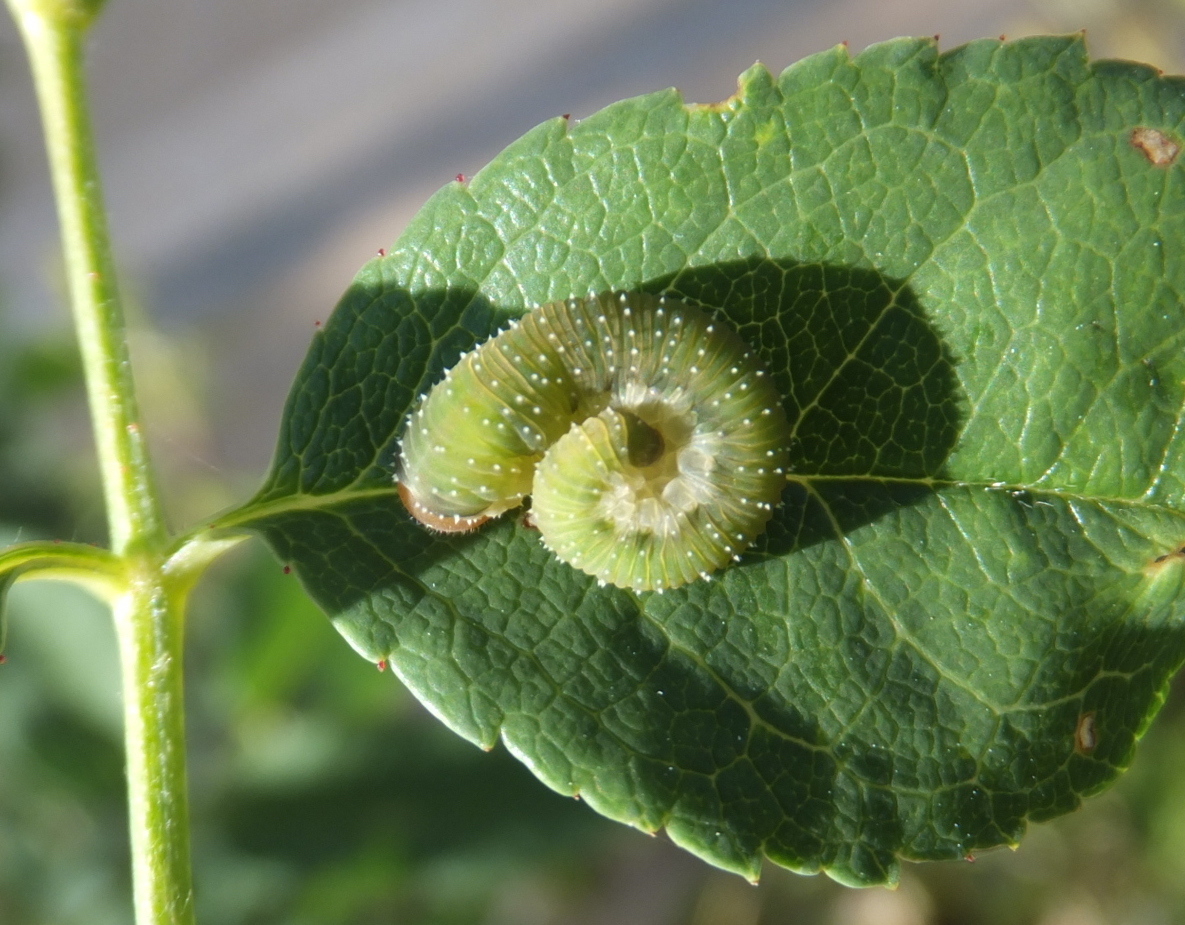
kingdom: Animalia
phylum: Arthropoda
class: Insecta
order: Hymenoptera
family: Tenthredinidae
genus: Allantus
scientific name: Allantus cinctus
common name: Curled rose sawfly
